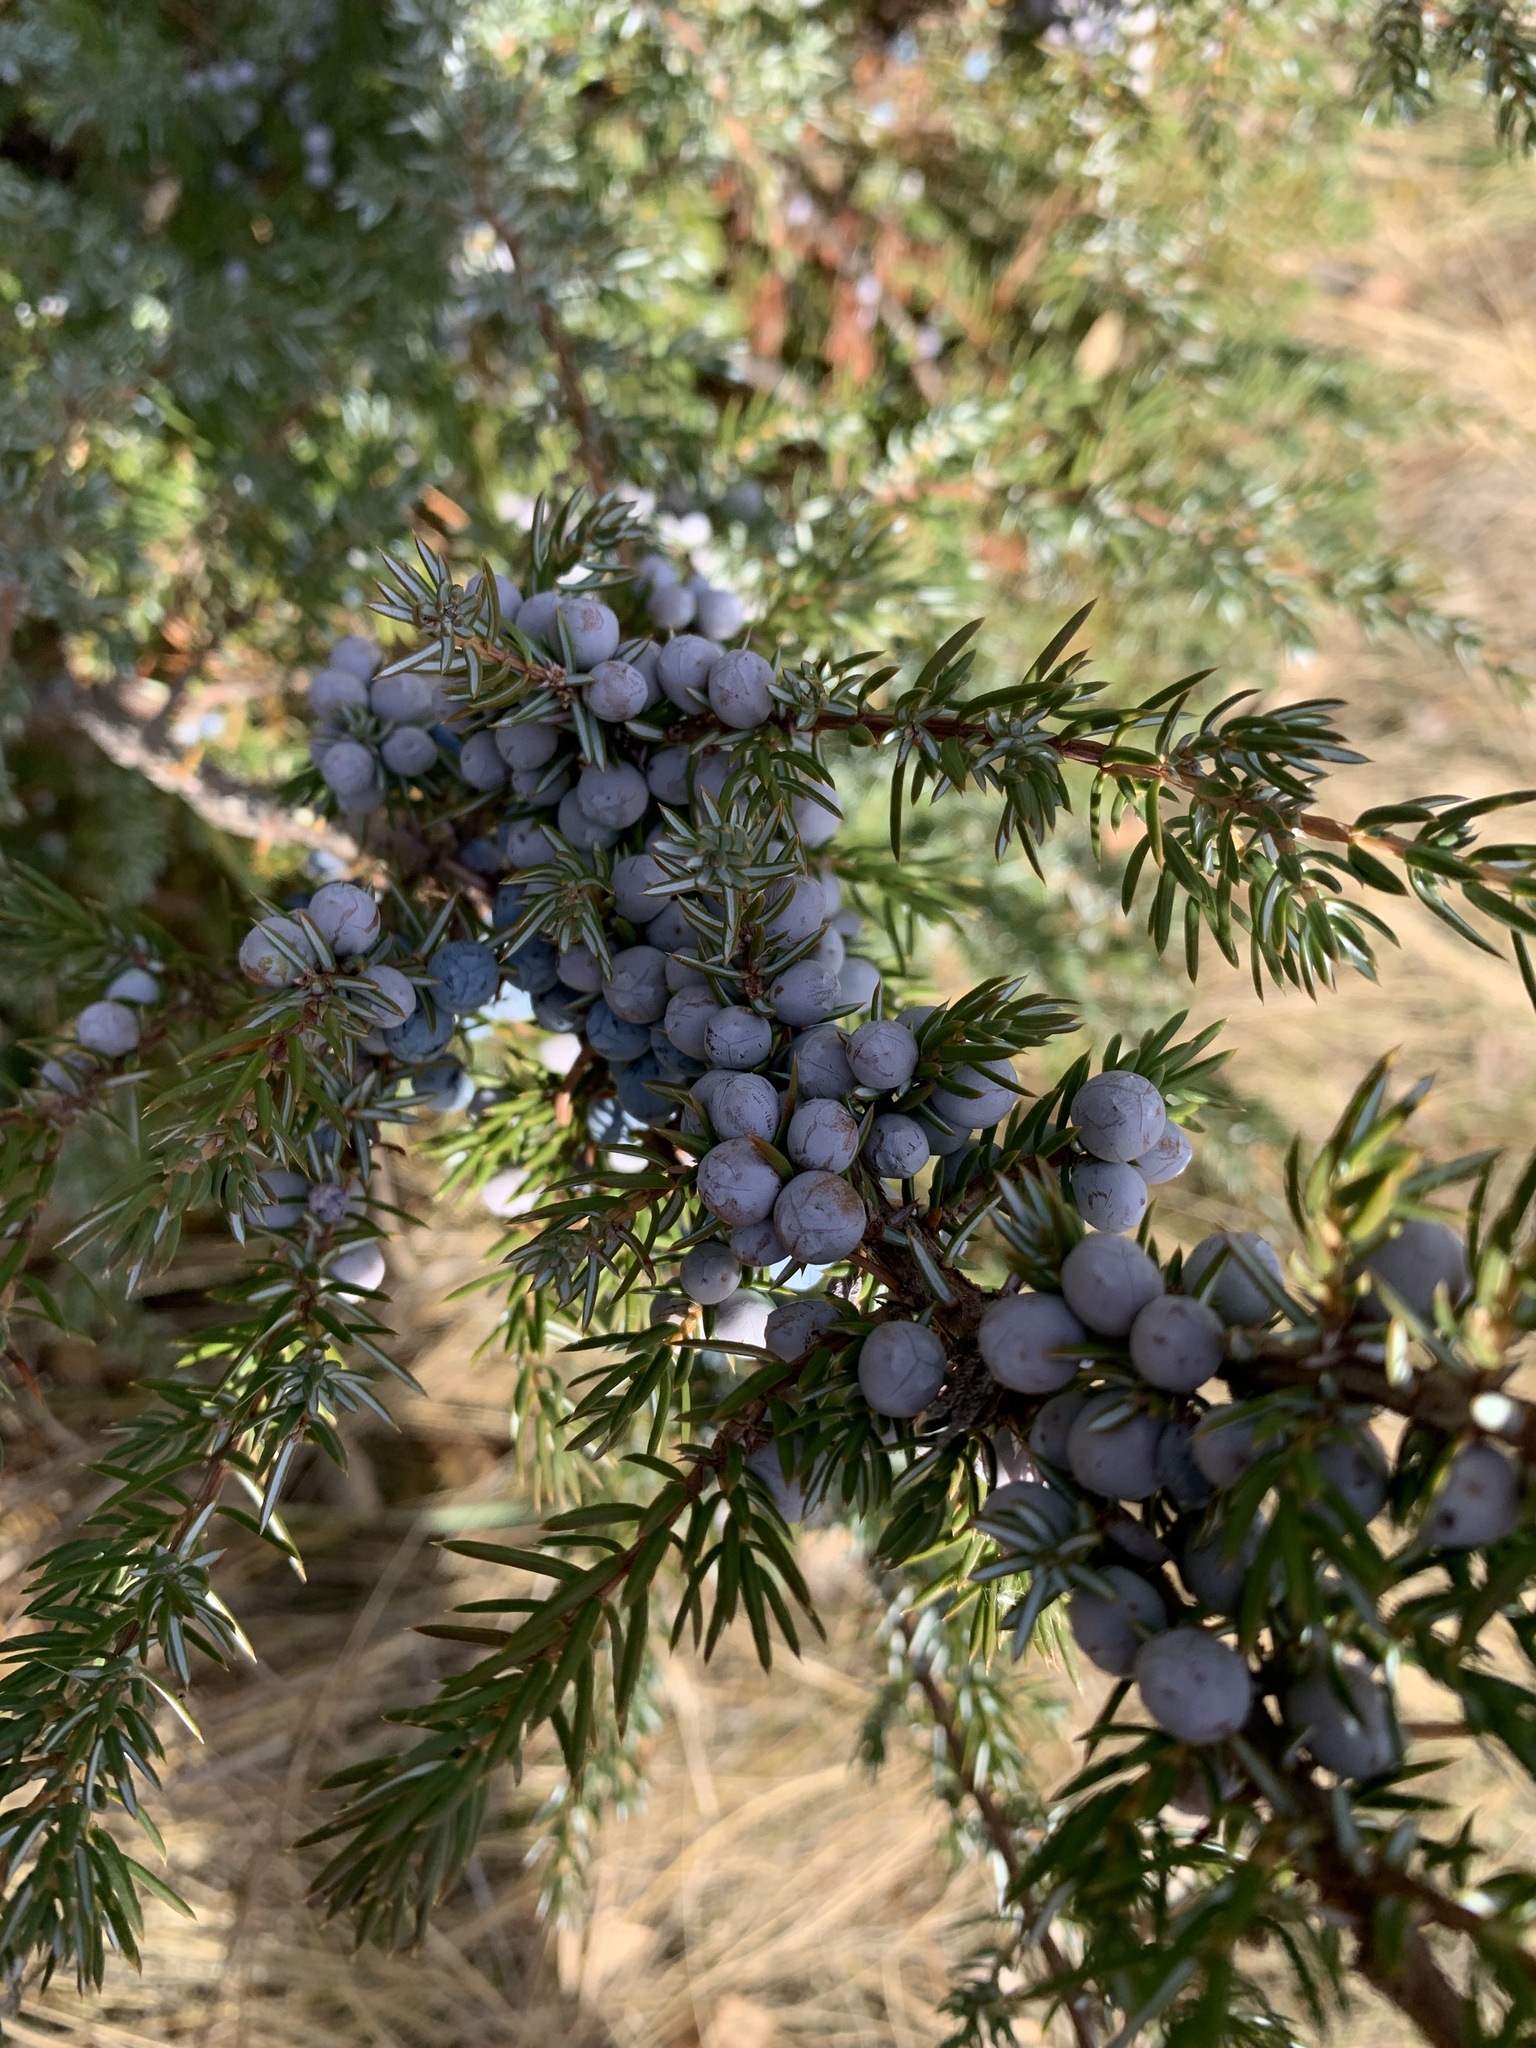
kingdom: Plantae
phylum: Tracheophyta
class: Pinopsida
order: Pinales
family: Cupressaceae
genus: Juniperus
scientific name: Juniperus communis
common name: Common juniper
